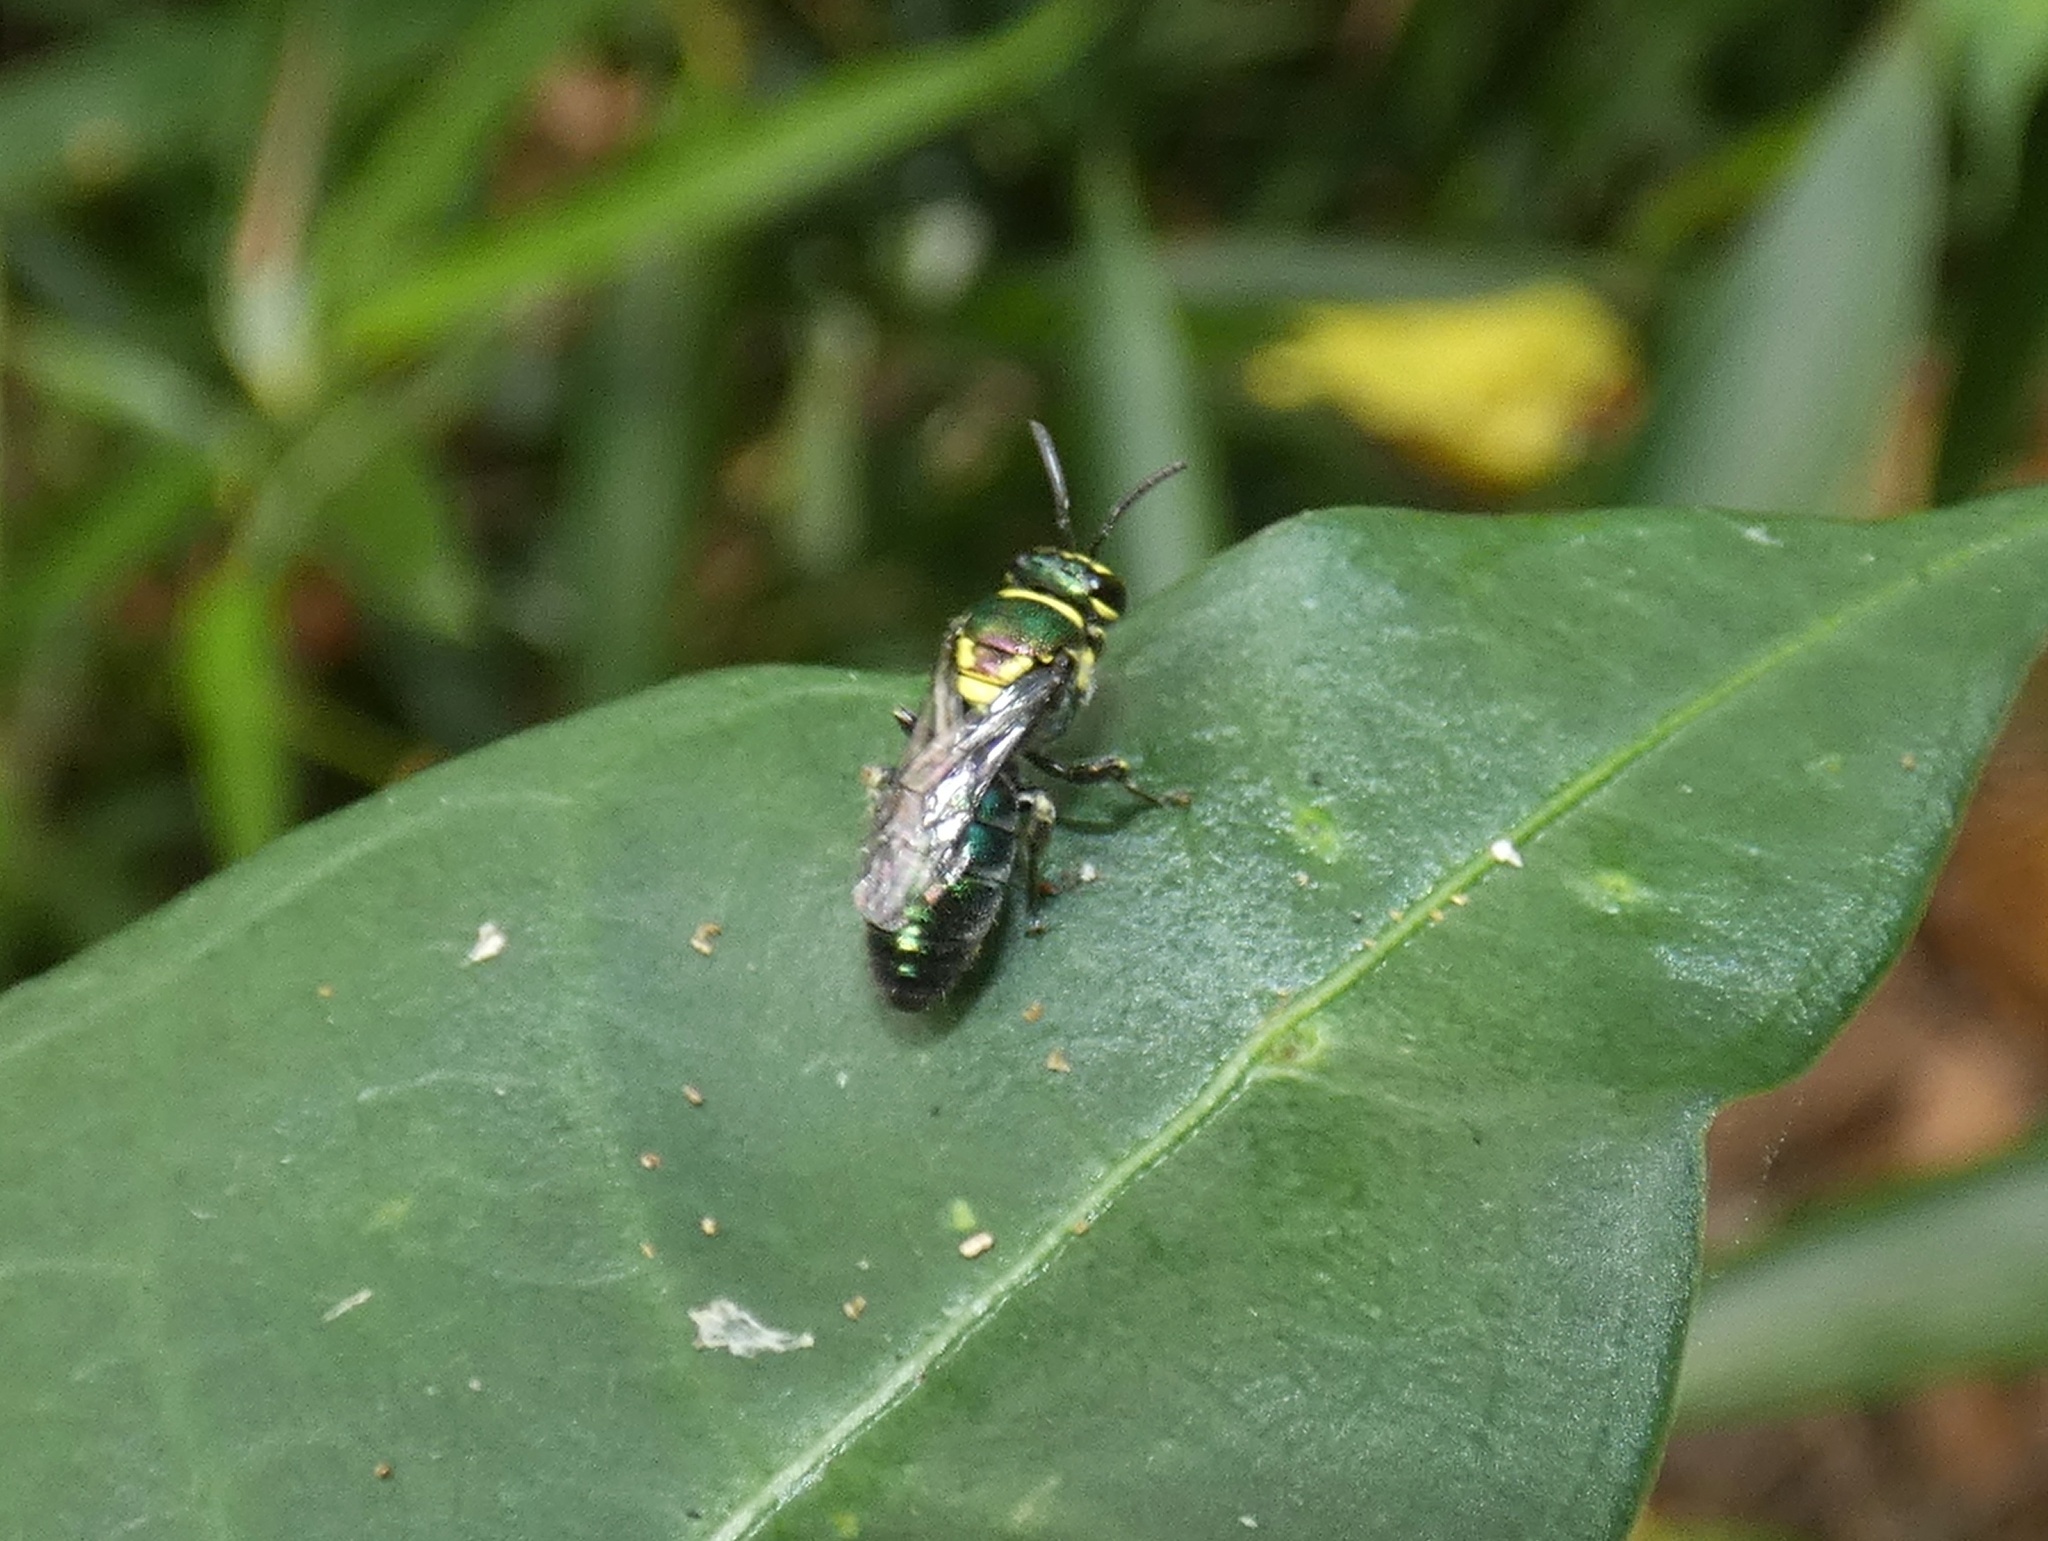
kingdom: Animalia
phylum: Arthropoda
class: Insecta
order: Hymenoptera
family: Colletidae
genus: Palaeorhiza
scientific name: Palaeorhiza disrupta
